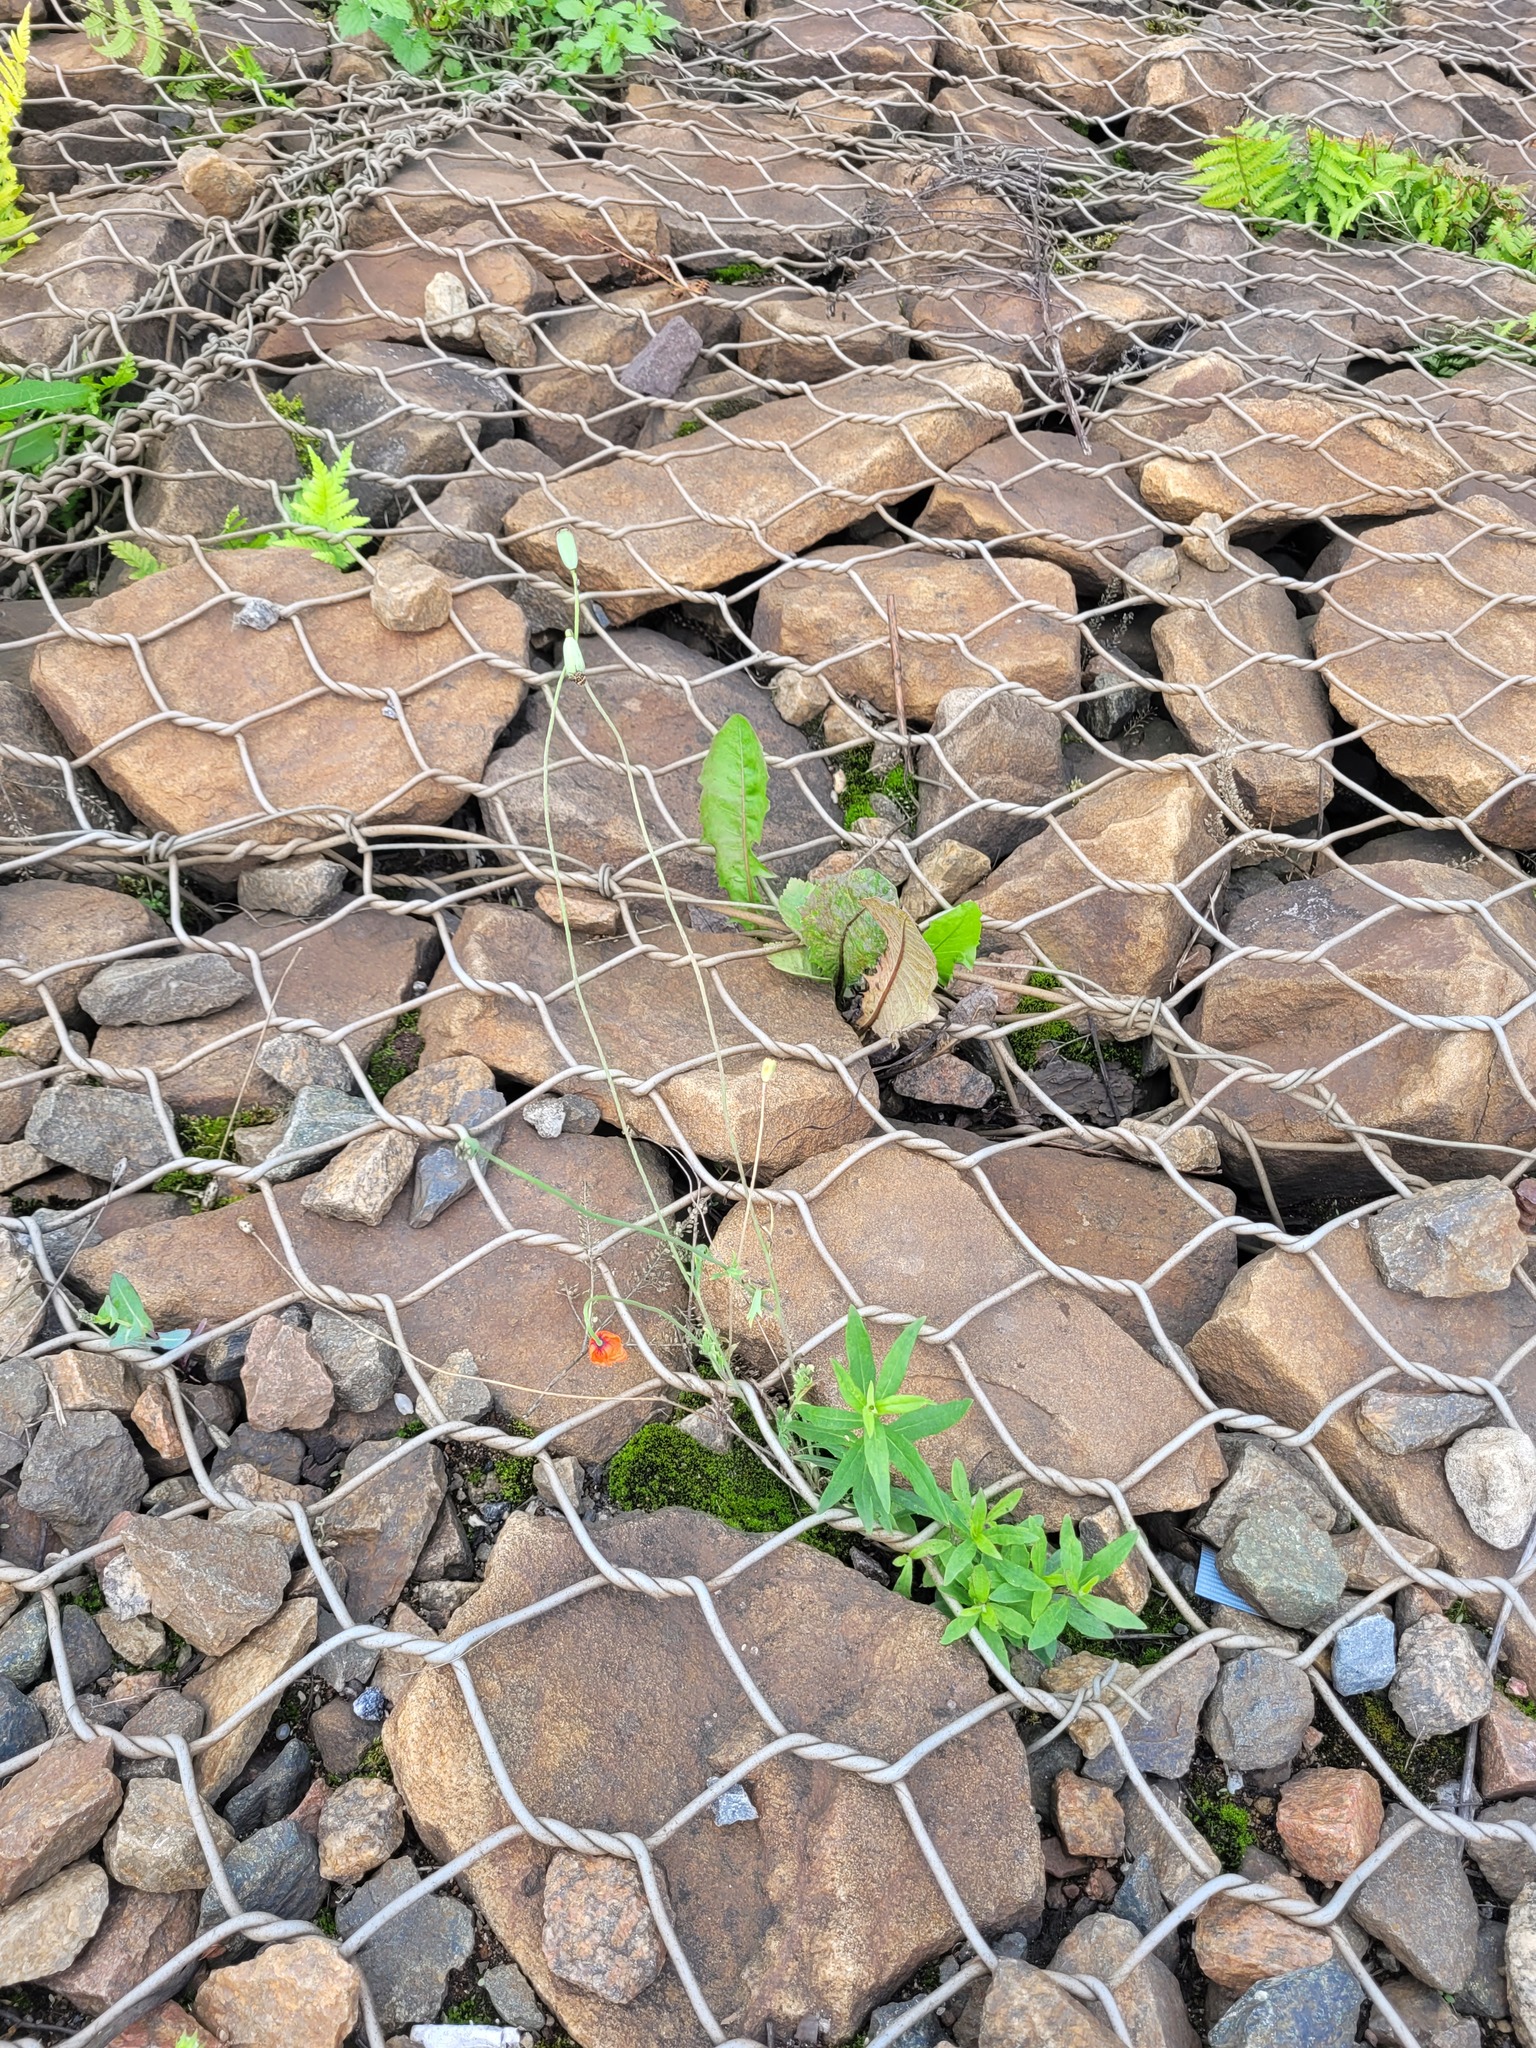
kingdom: Plantae
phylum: Tracheophyta
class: Magnoliopsida
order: Ranunculales
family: Papaveraceae
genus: Papaver
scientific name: Papaver dubium
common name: Long-headed poppy
